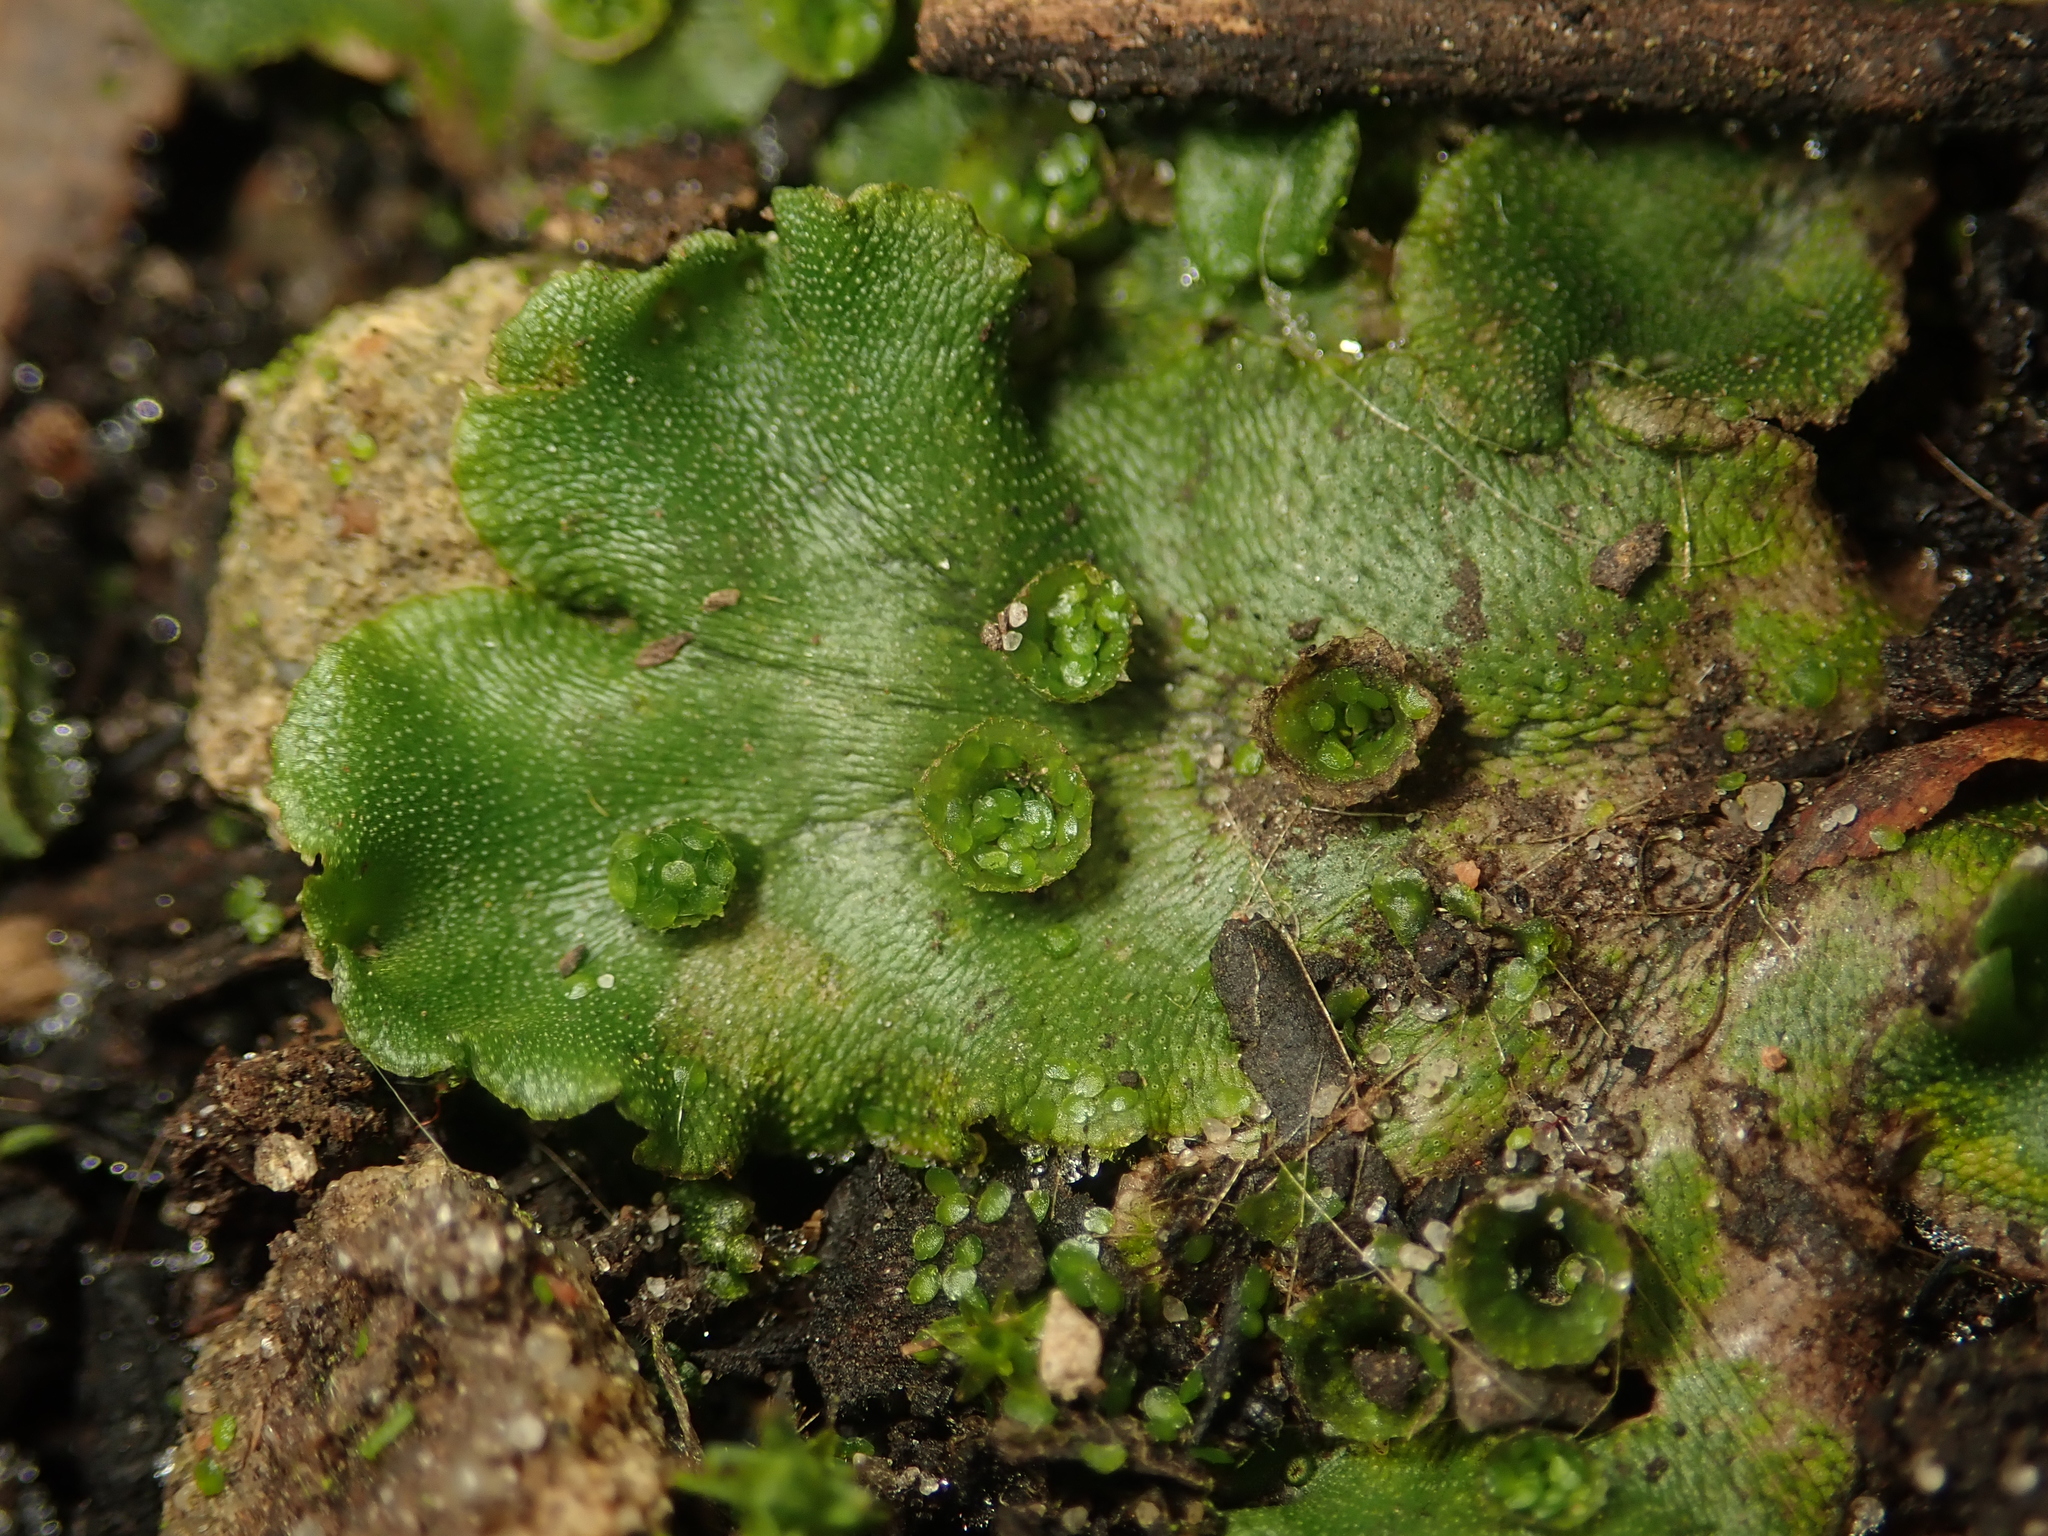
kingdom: Plantae
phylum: Marchantiophyta
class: Marchantiopsida
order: Marchantiales
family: Marchantiaceae
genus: Marchantia
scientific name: Marchantia polymorpha
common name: Common liverwort
